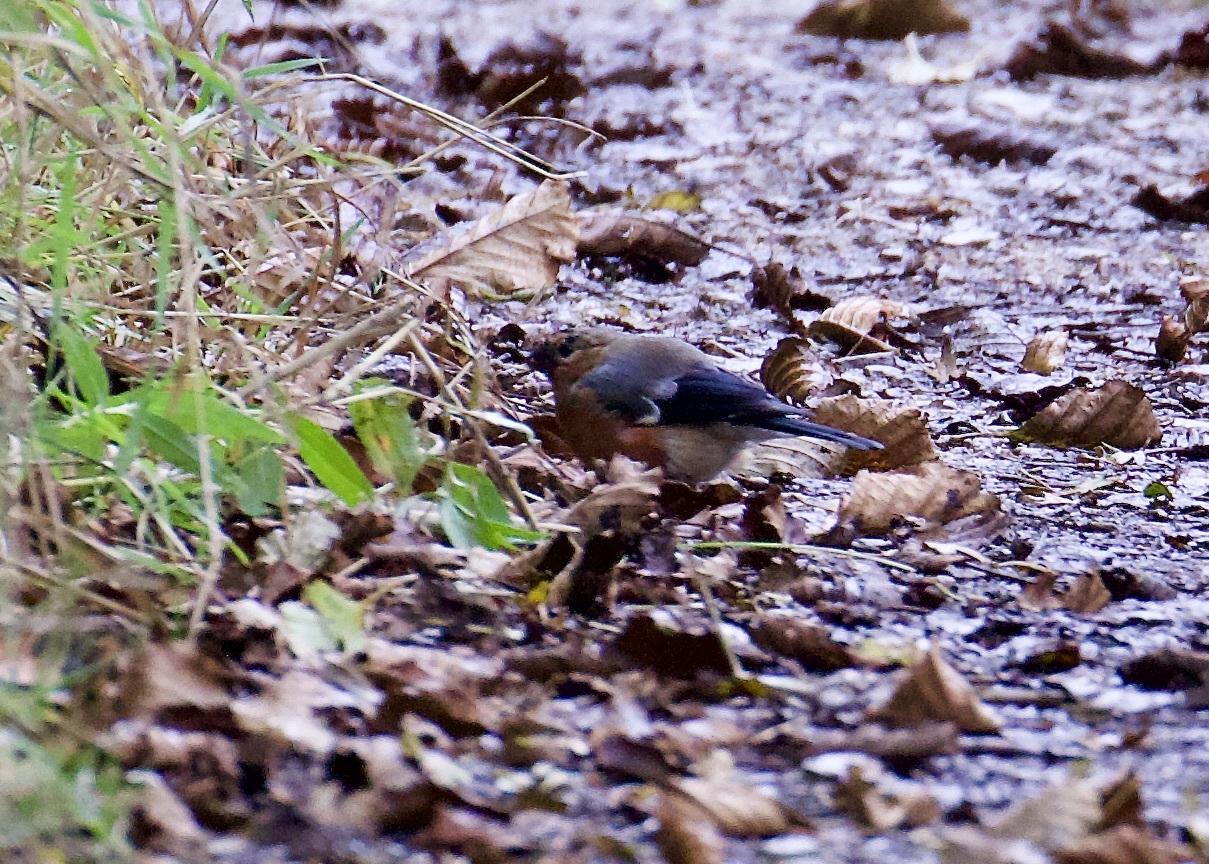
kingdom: Animalia
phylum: Chordata
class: Aves
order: Passeriformes
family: Fringillidae
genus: Pyrrhula
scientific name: Pyrrhula pyrrhula
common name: Eurasian bullfinch
